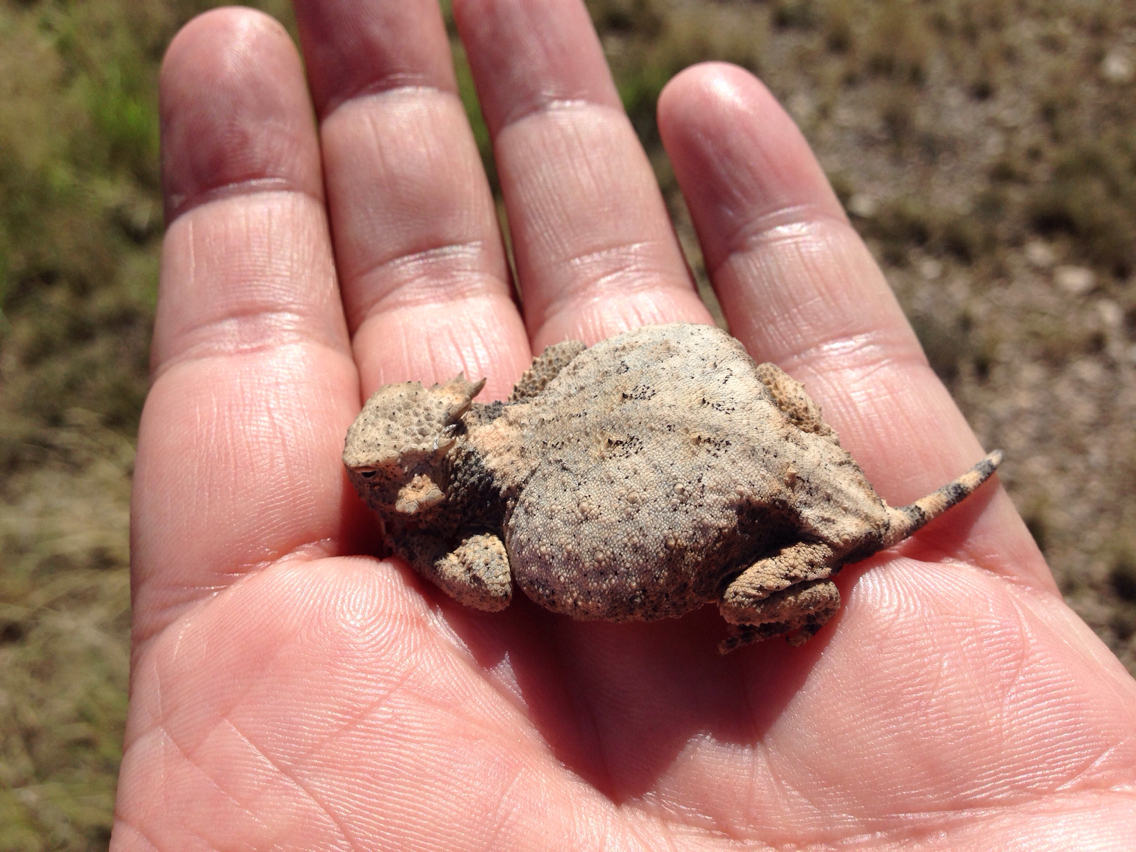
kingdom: Animalia
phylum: Chordata
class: Squamata
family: Phrynosomatidae
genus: Phrynosoma
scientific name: Phrynosoma modestum
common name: Roundtail horned lizard
